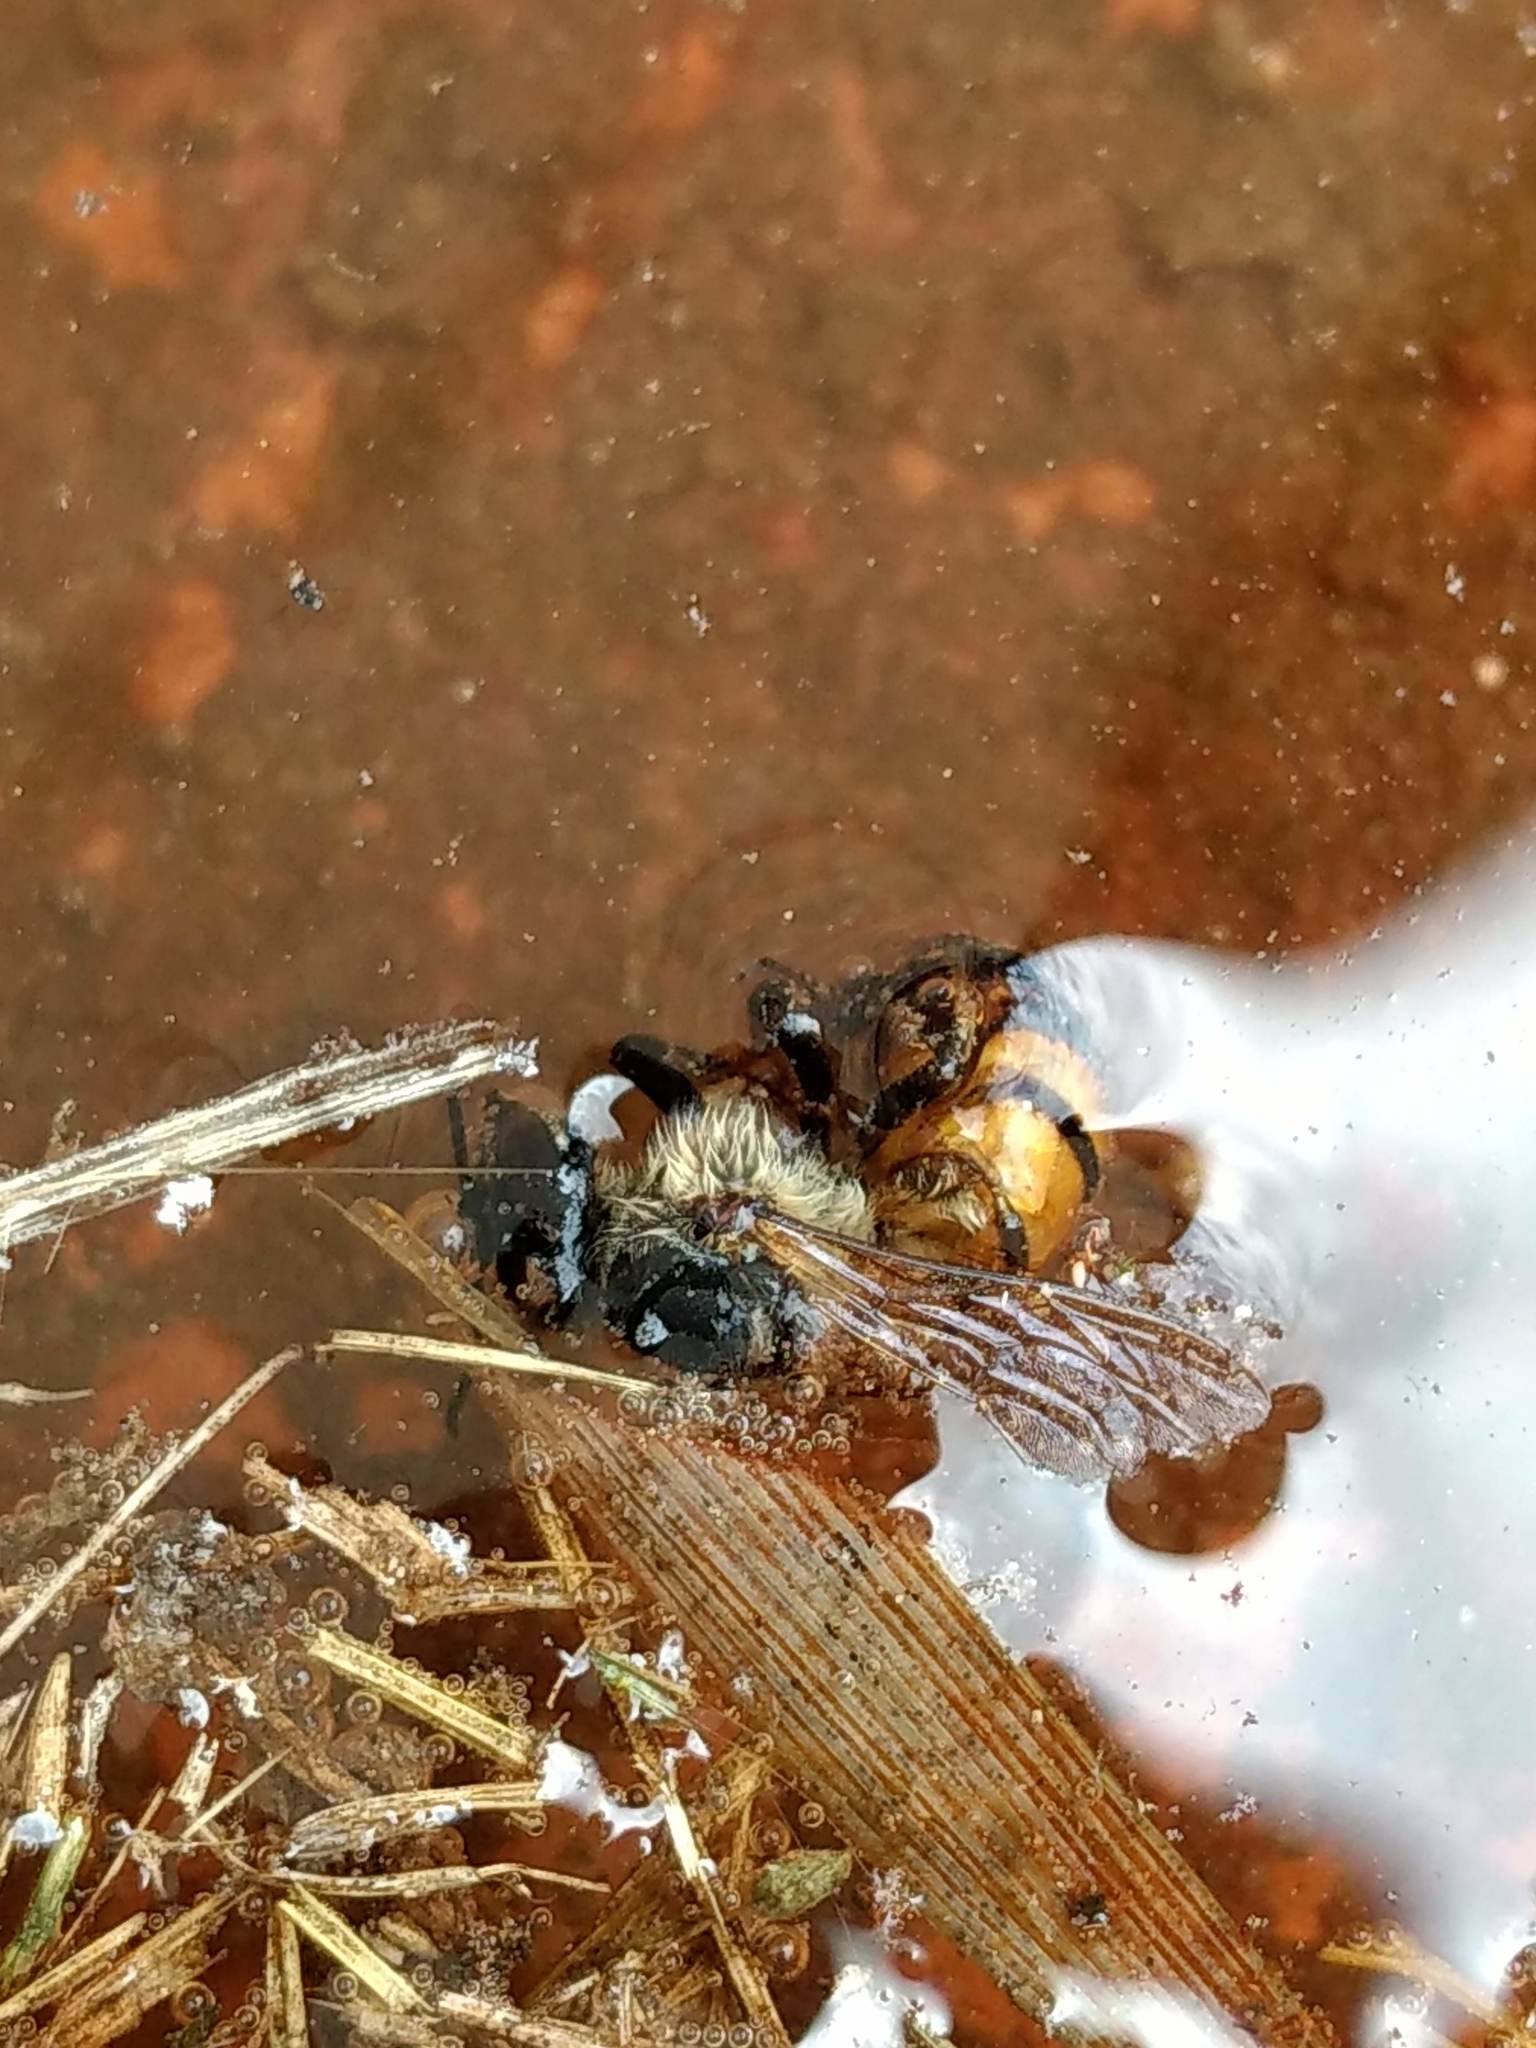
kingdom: Animalia
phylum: Arthropoda
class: Insecta
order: Hymenoptera
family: Apidae
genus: Apis
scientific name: Apis mellifera
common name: Honey bee
